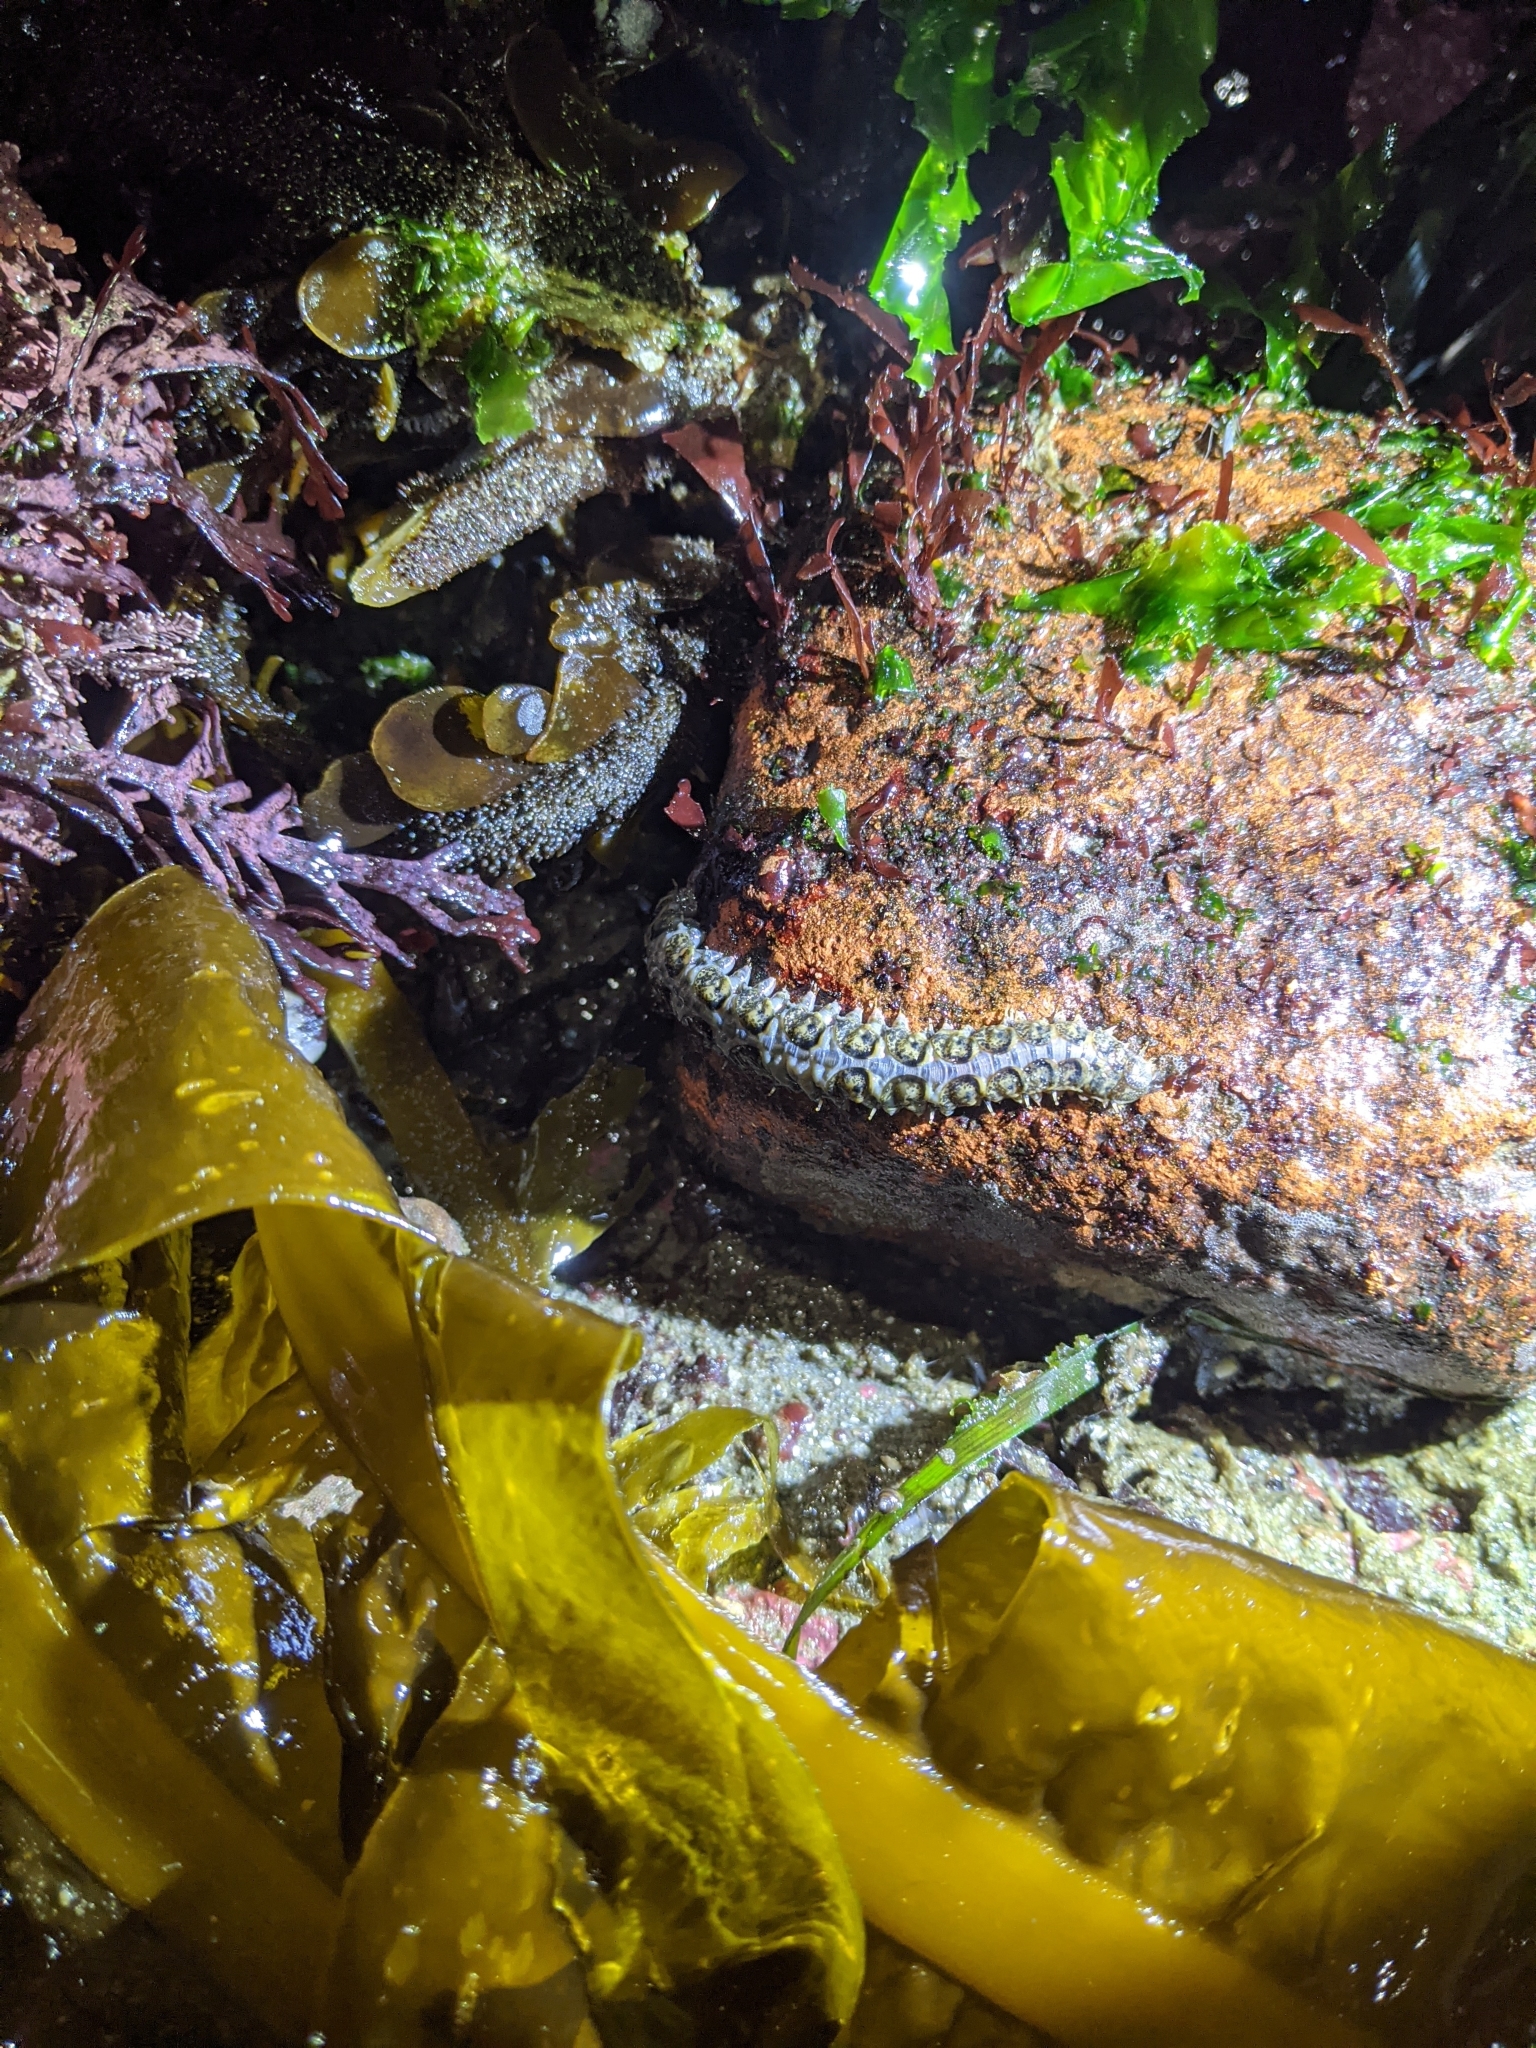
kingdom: Animalia
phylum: Annelida
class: Polychaeta
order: Phyllodocida
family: Polynoidae
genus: Halosydna
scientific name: Halosydna brevisetosa
